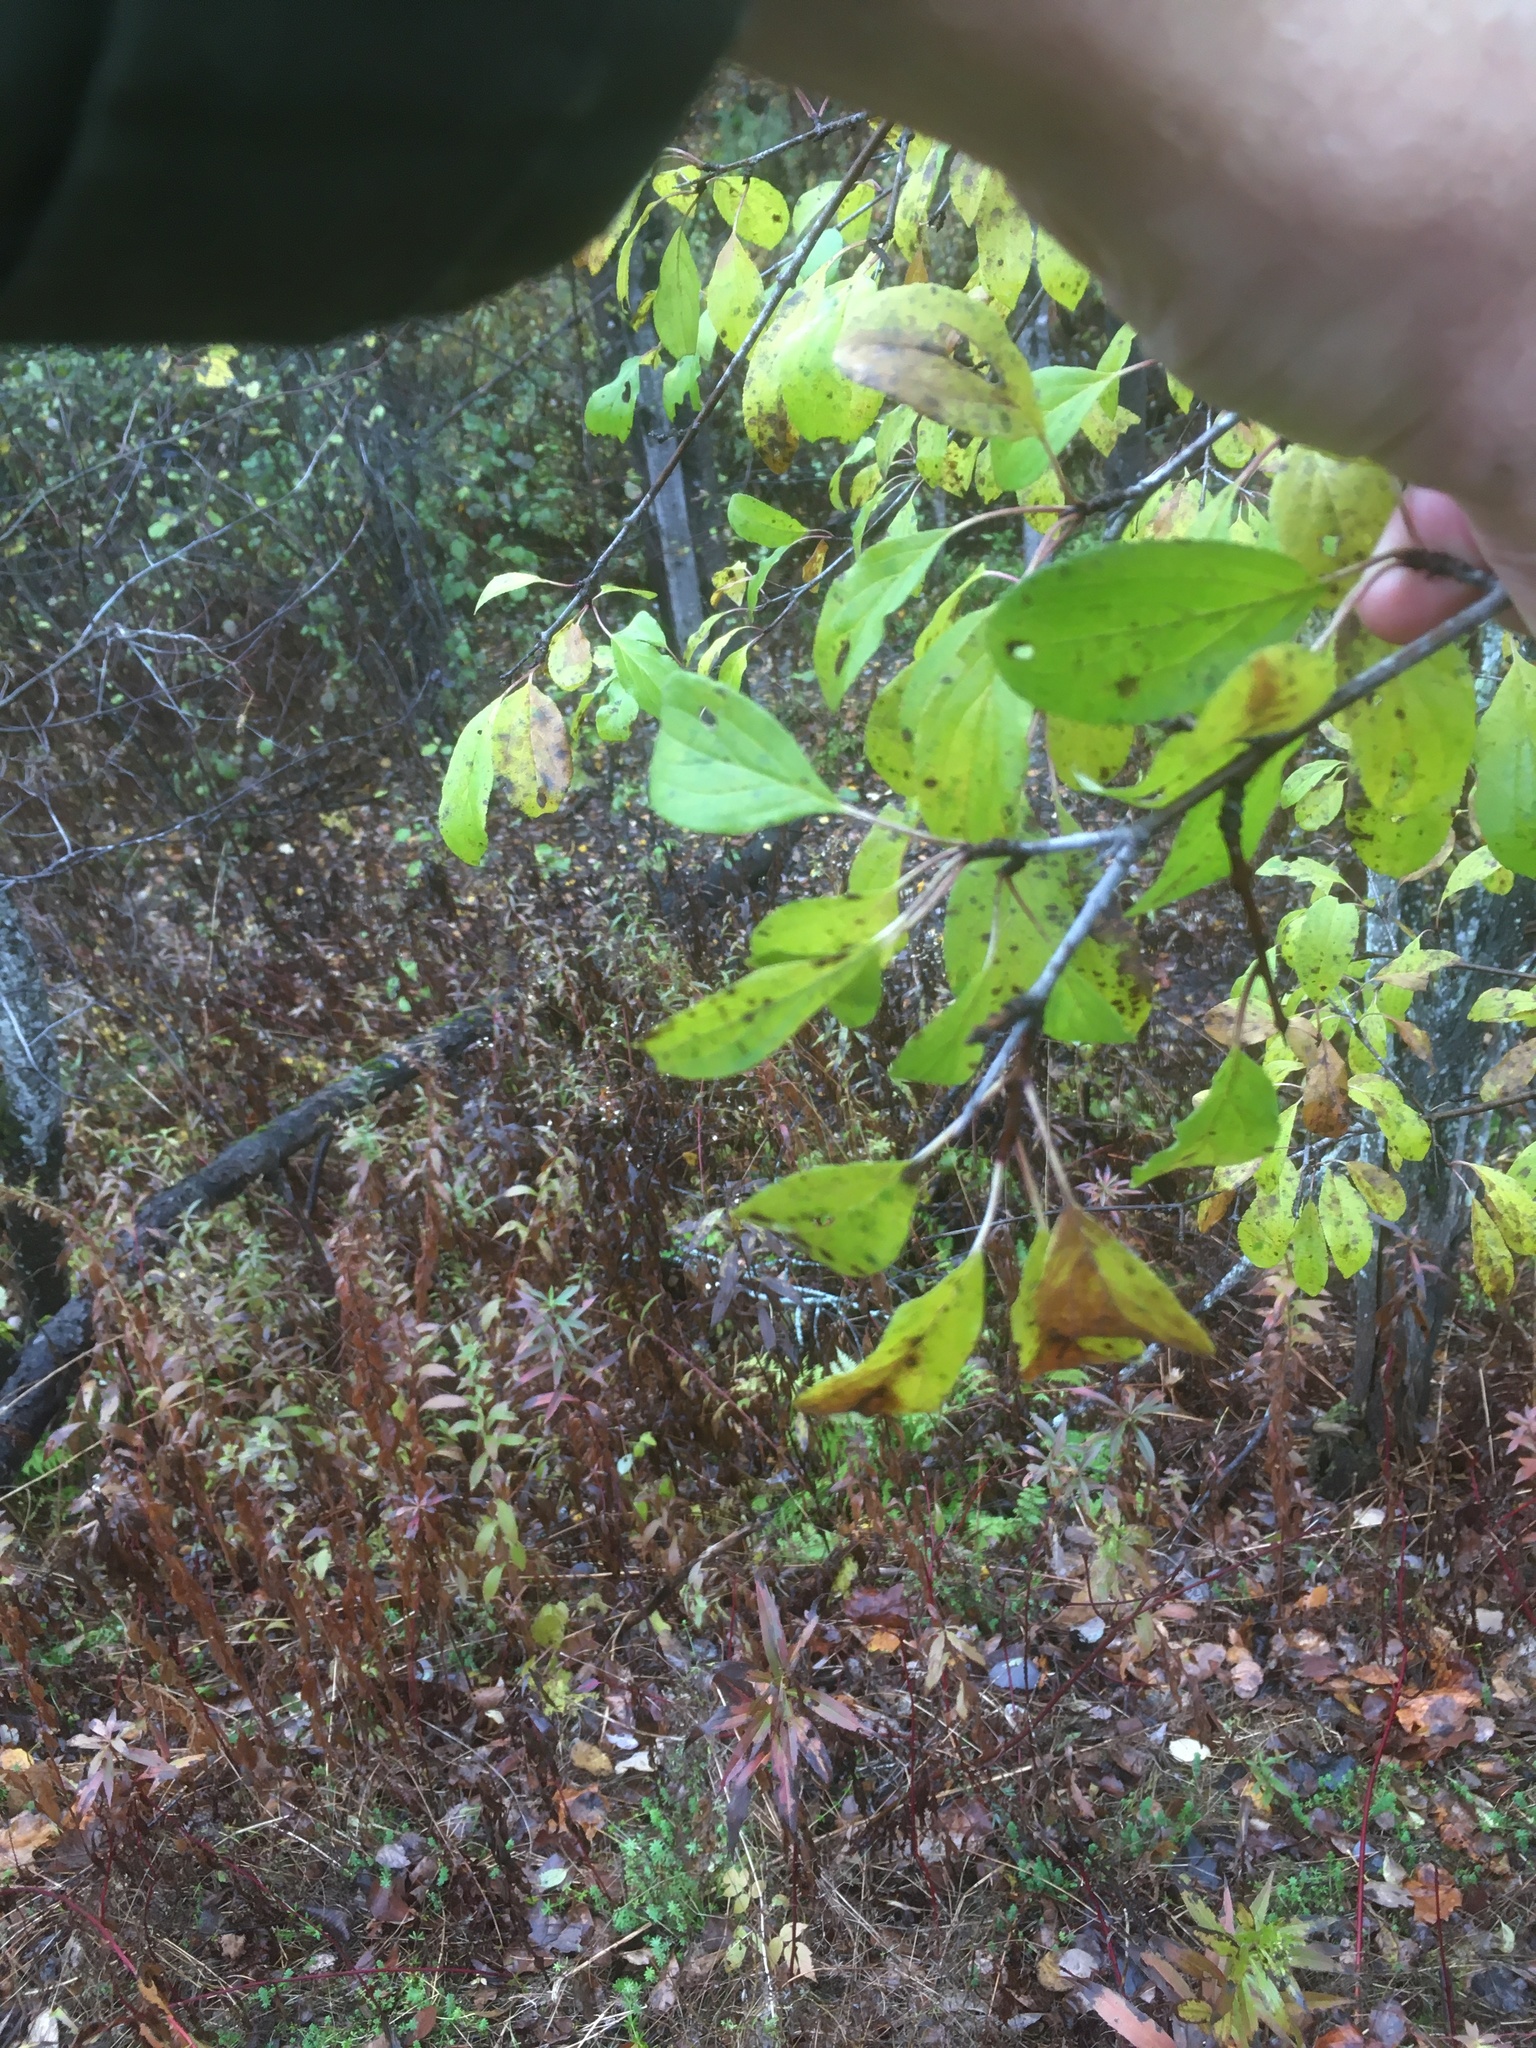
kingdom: Plantae
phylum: Tracheophyta
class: Magnoliopsida
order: Rosales
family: Rhamnaceae
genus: Rhamnus
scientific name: Rhamnus cathartica
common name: Common buckthorn
